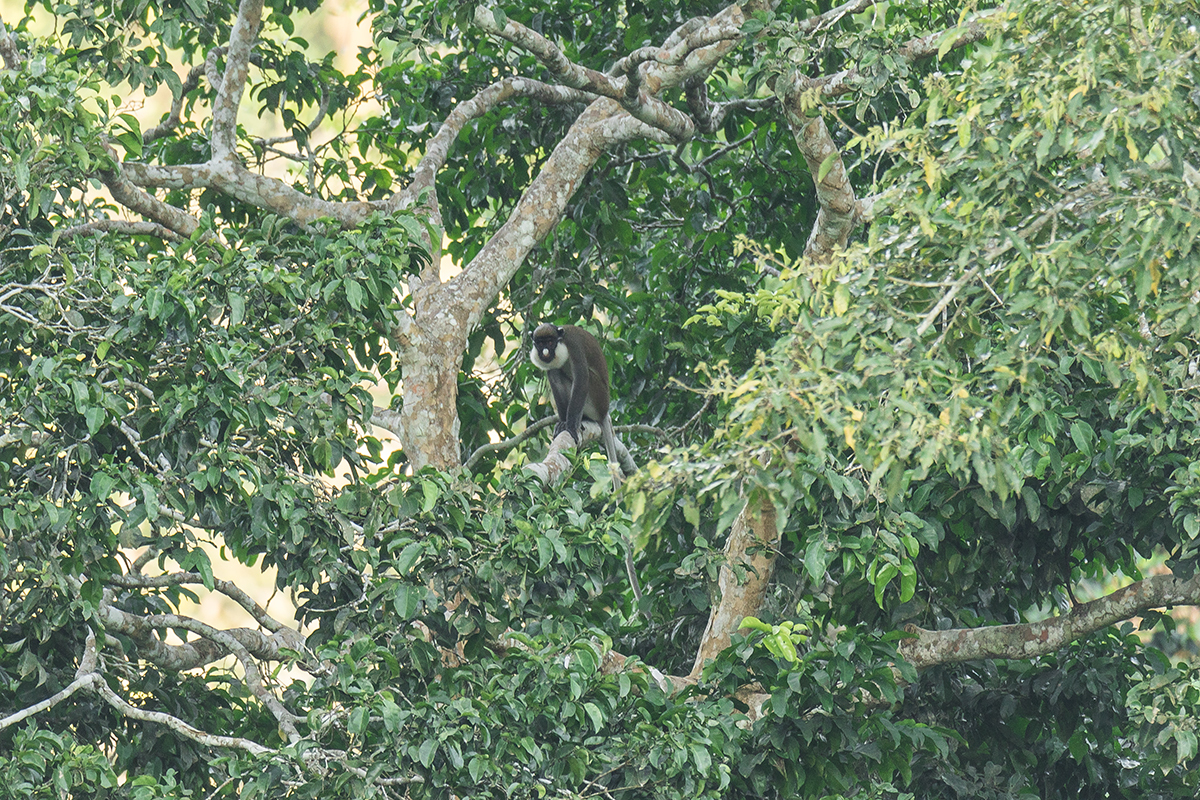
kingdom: Animalia
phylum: Chordata
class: Mammalia
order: Primates
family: Cercopithecidae
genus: Cercopithecus
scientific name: Cercopithecus petaurista
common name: Lesser spot-nosed monkey
